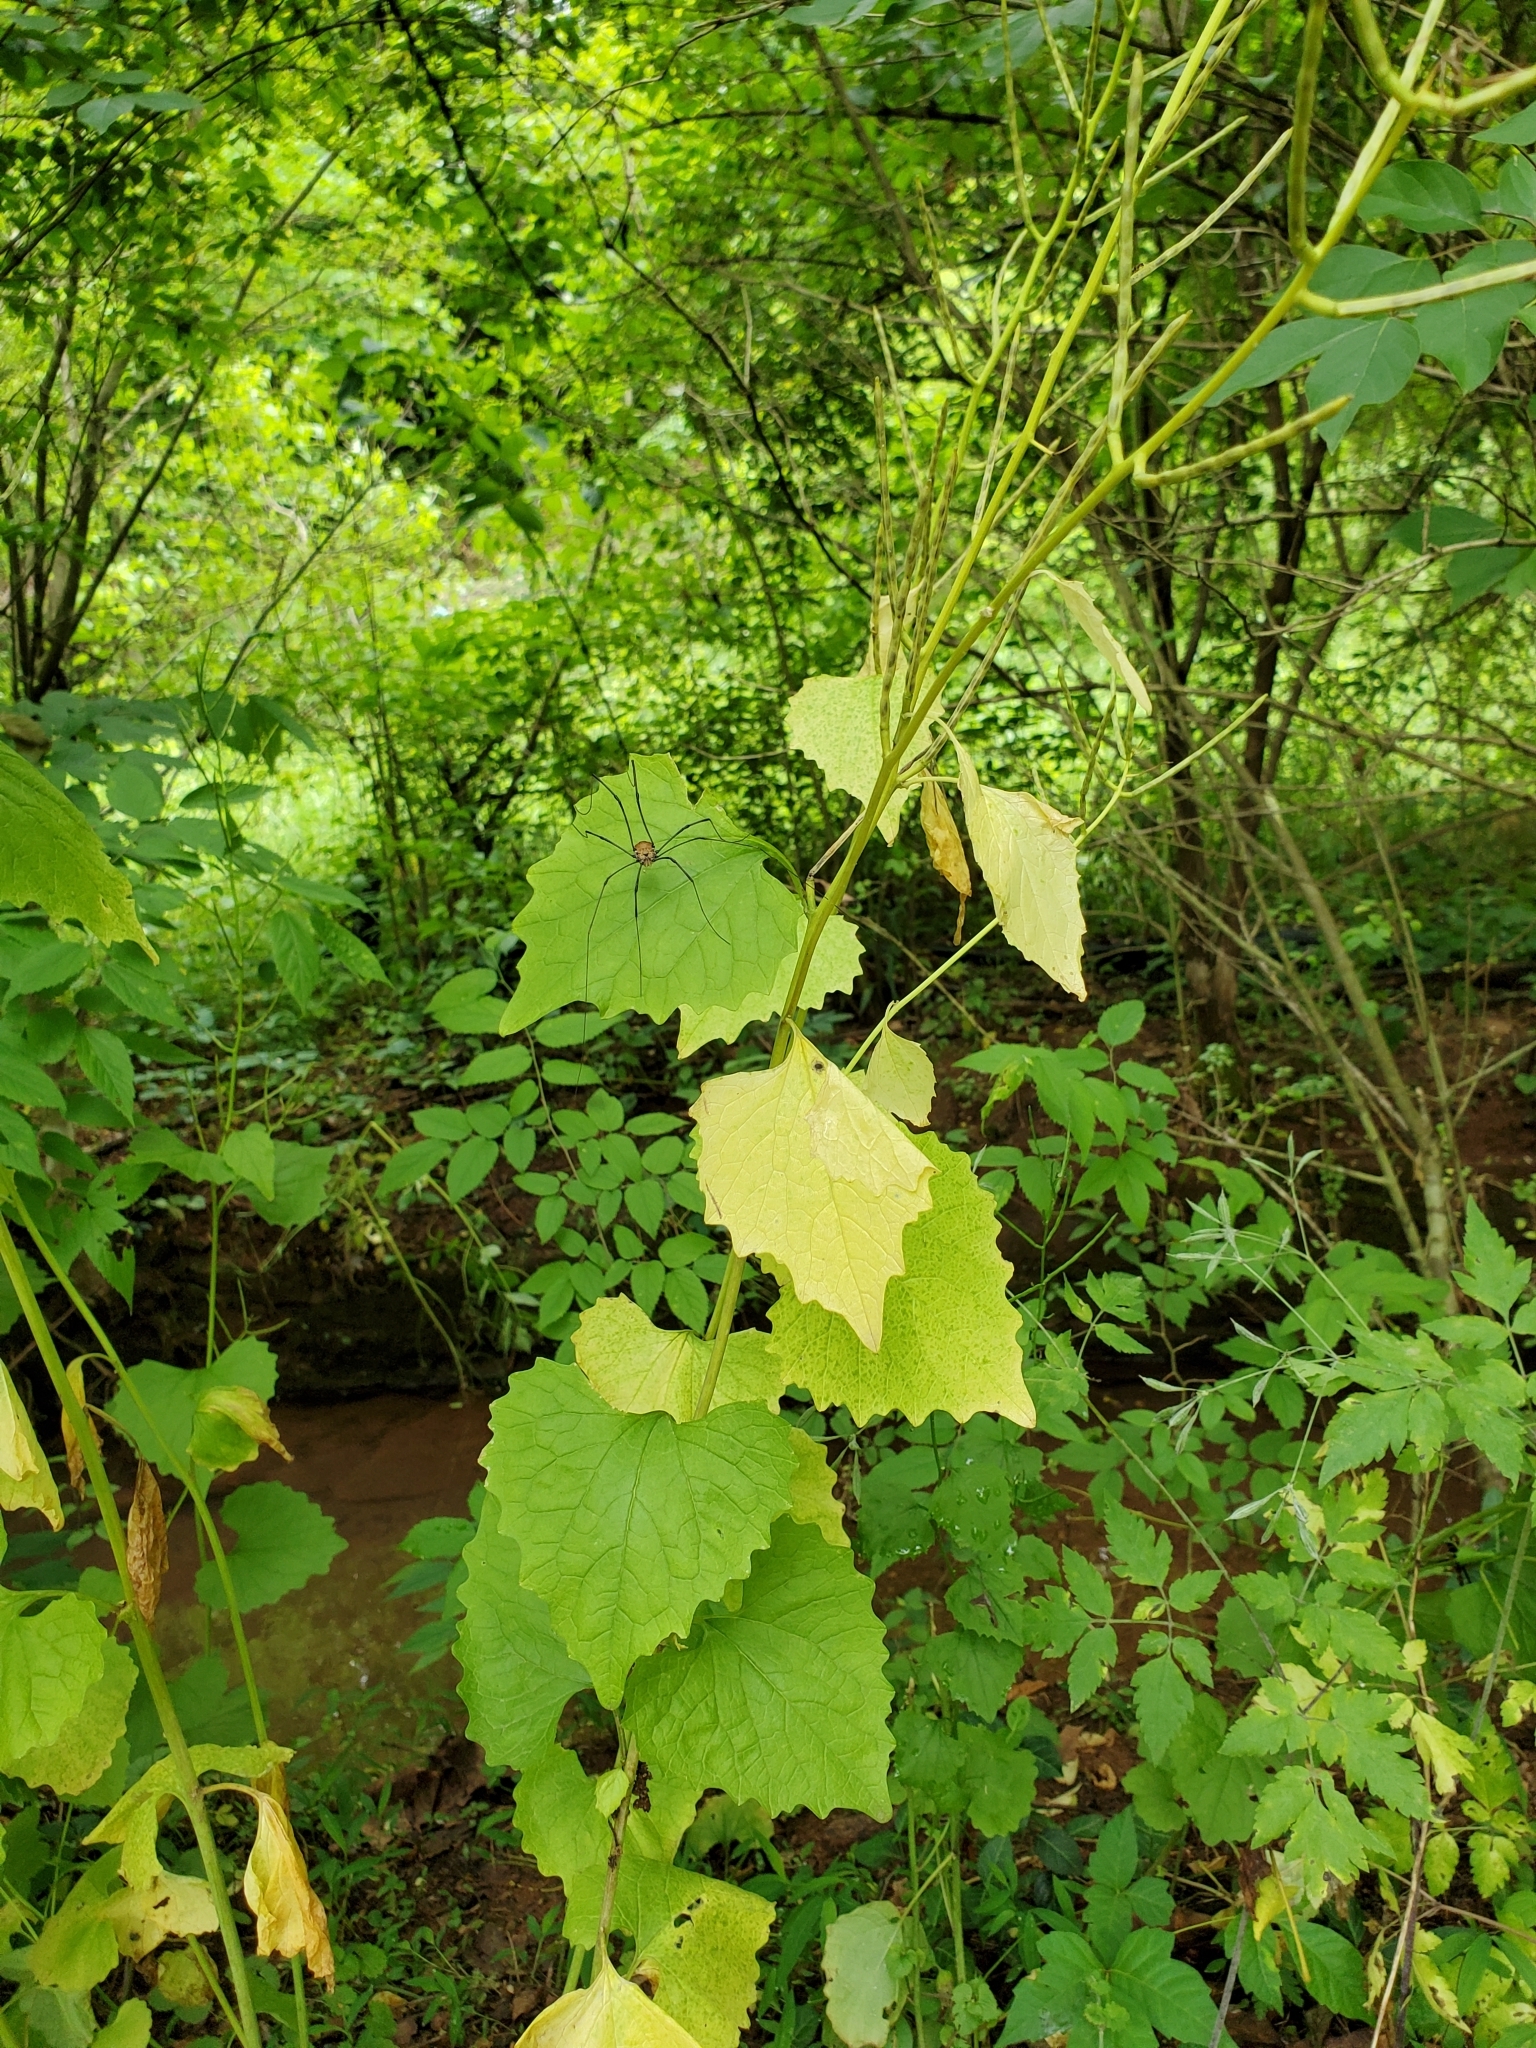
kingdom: Plantae
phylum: Tracheophyta
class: Magnoliopsida
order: Brassicales
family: Brassicaceae
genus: Alliaria
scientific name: Alliaria petiolata
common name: Garlic mustard
